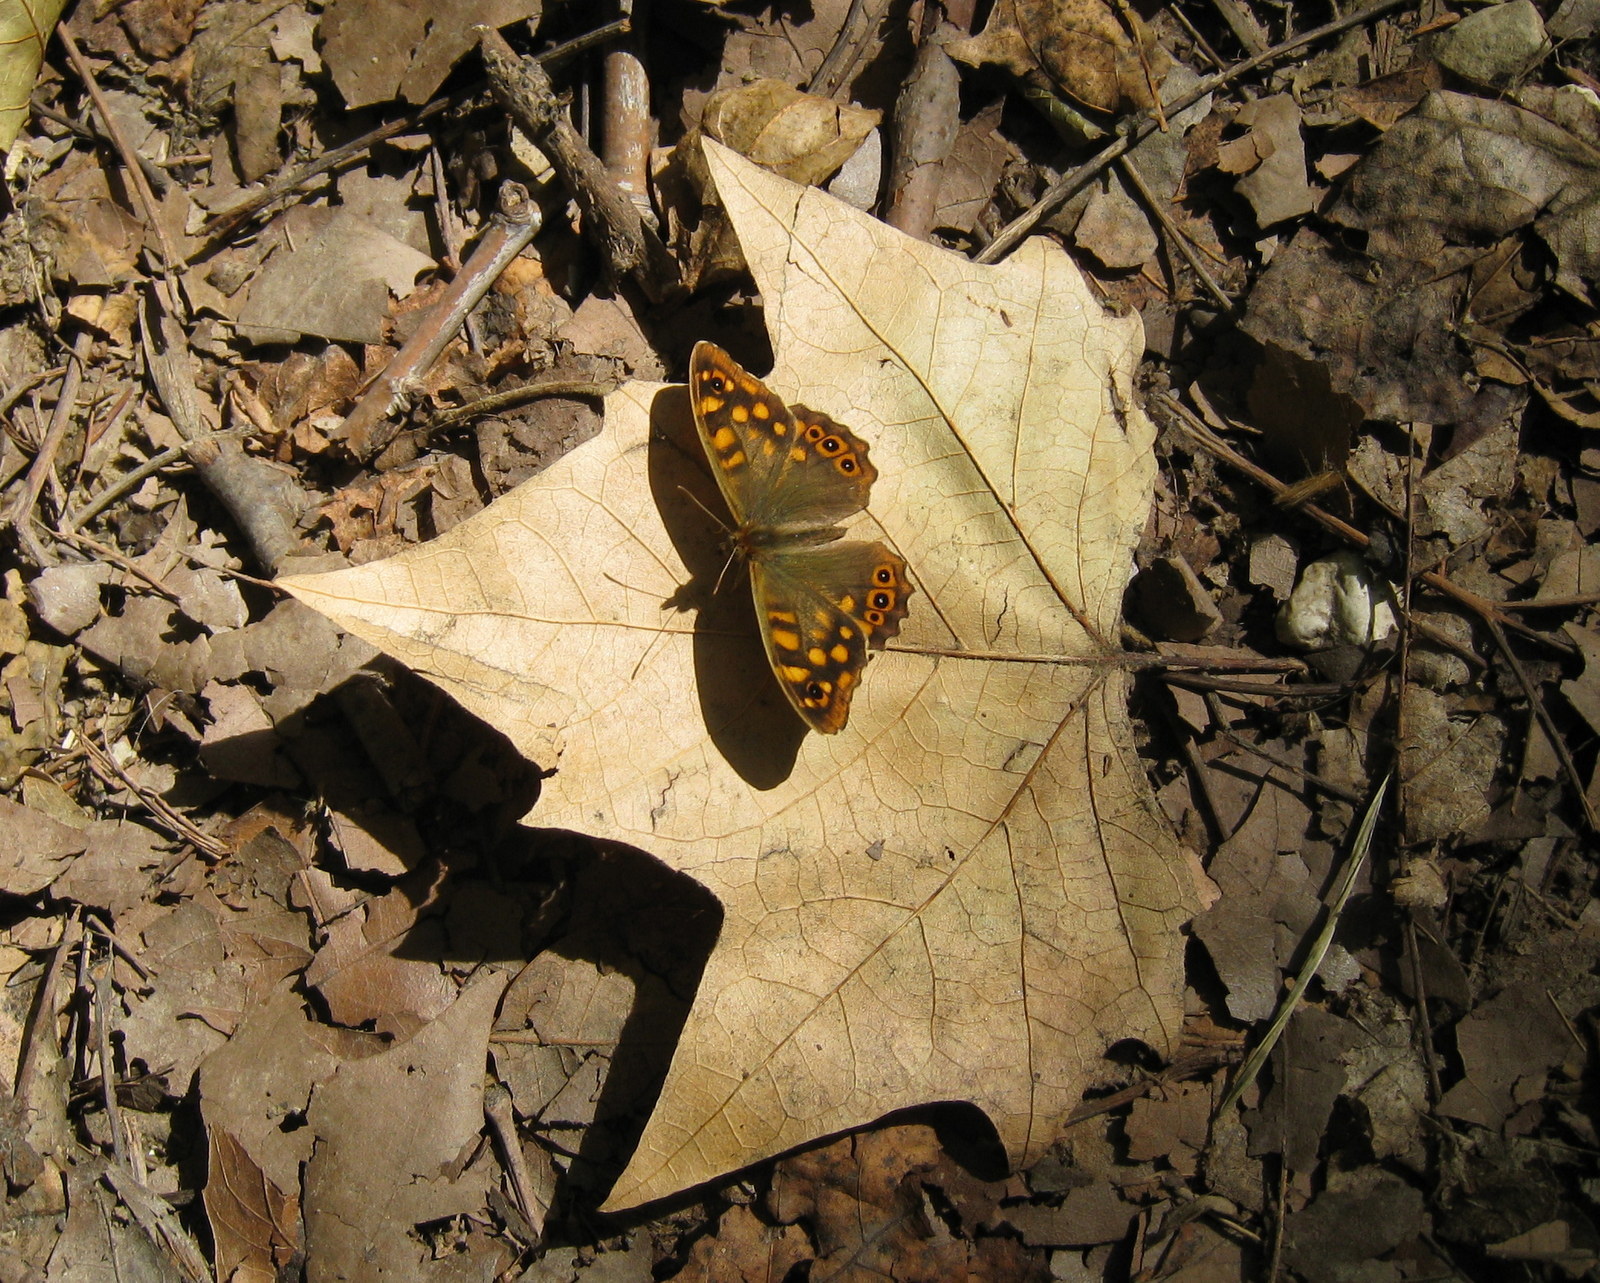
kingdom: Animalia
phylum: Arthropoda
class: Insecta
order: Lepidoptera
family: Nymphalidae
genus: Pararge
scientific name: Pararge aegeria
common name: Speckled wood
